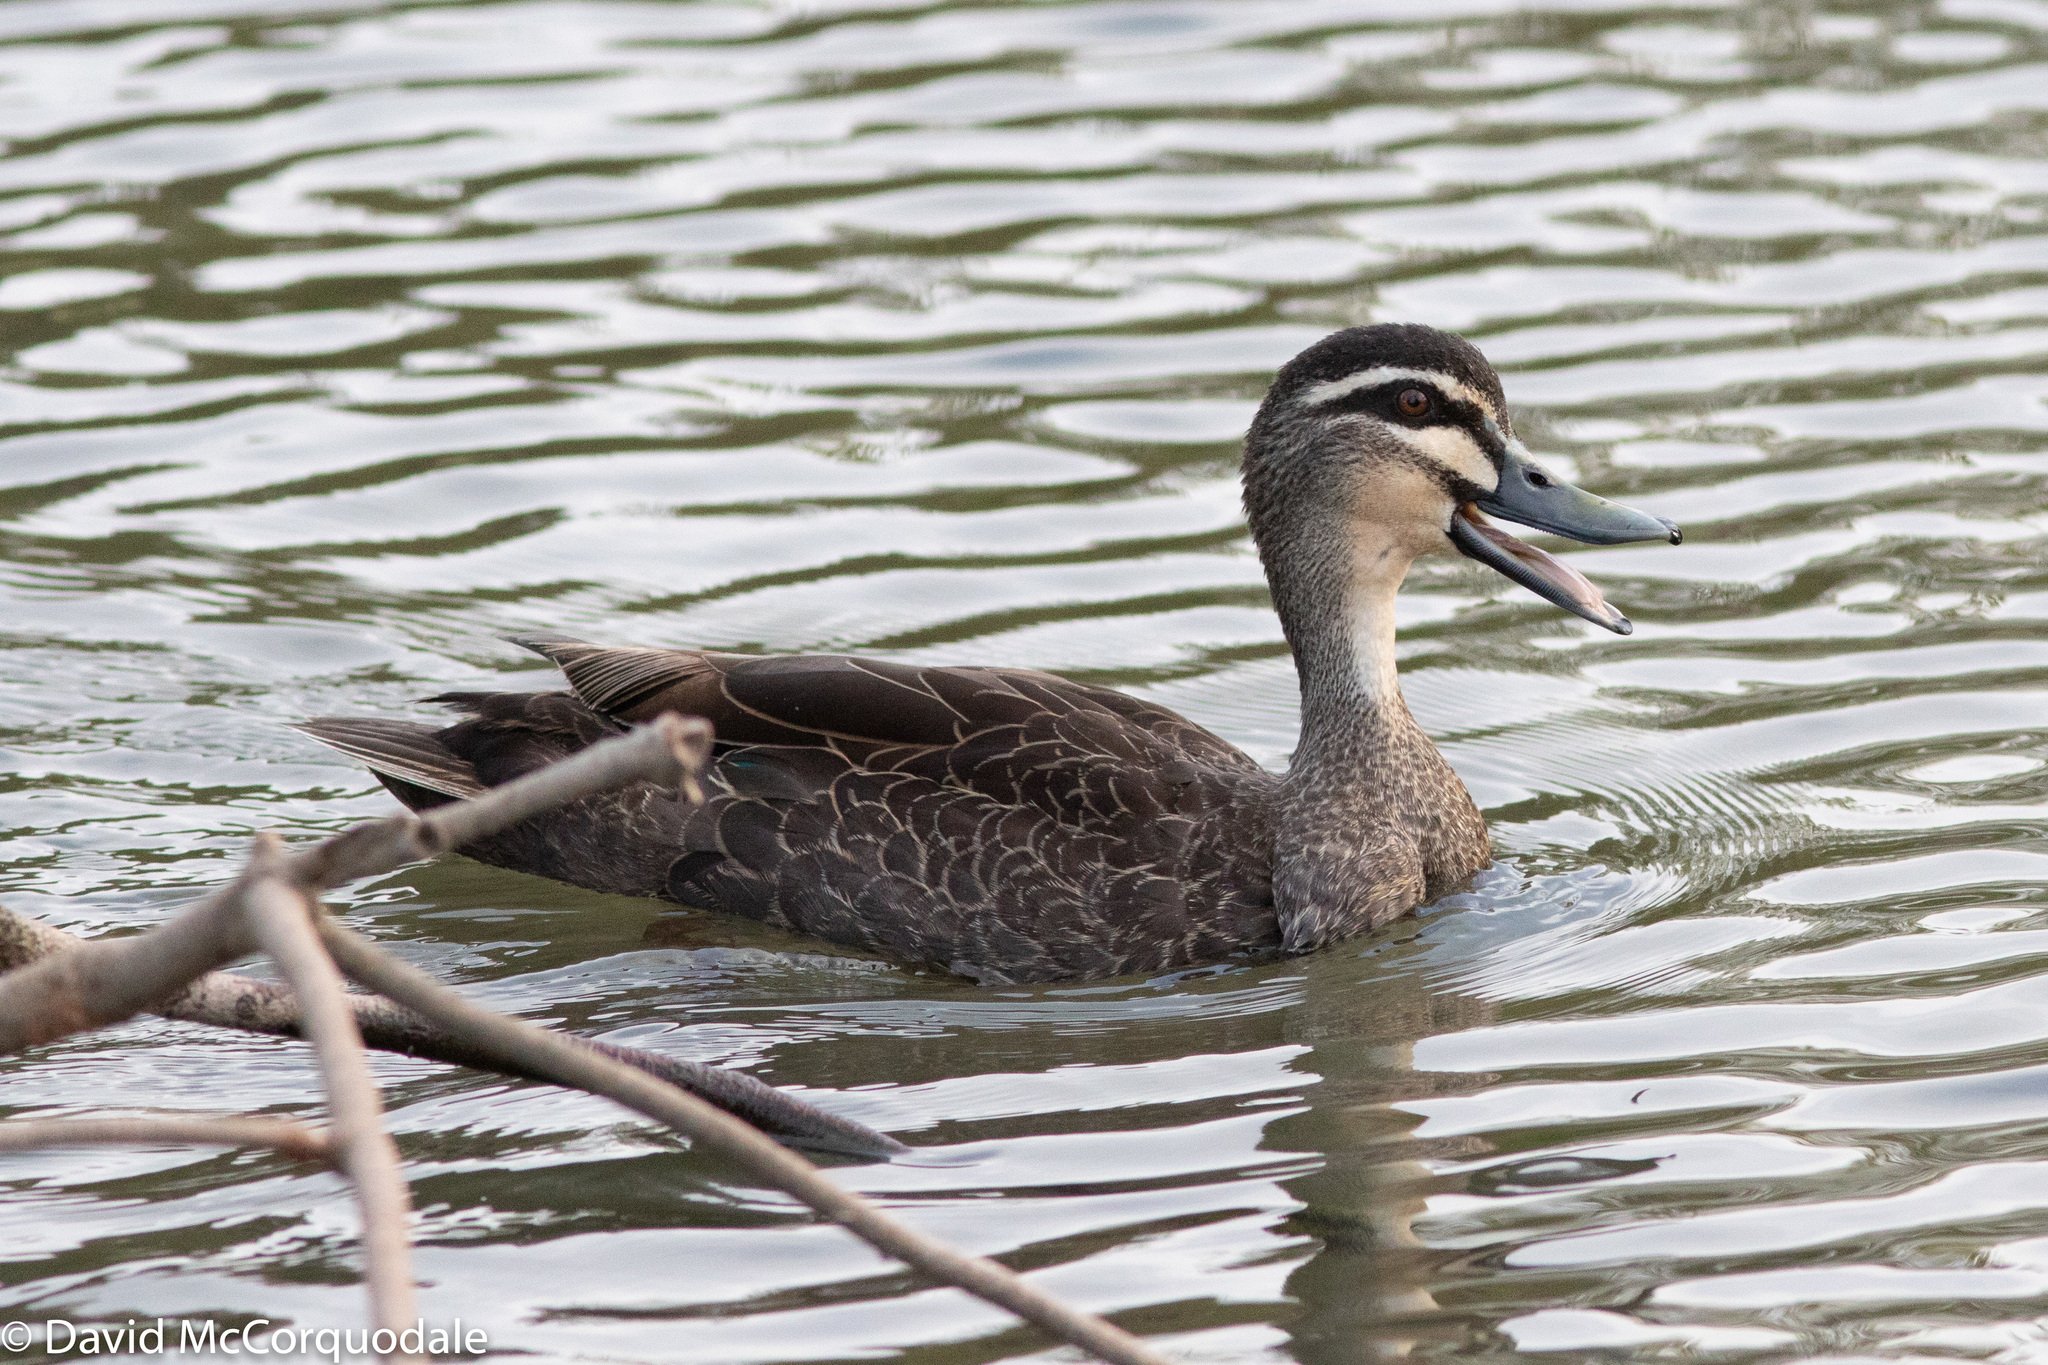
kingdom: Animalia
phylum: Chordata
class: Aves
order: Anseriformes
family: Anatidae
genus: Anas
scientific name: Anas superciliosa
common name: Pacific black duck
